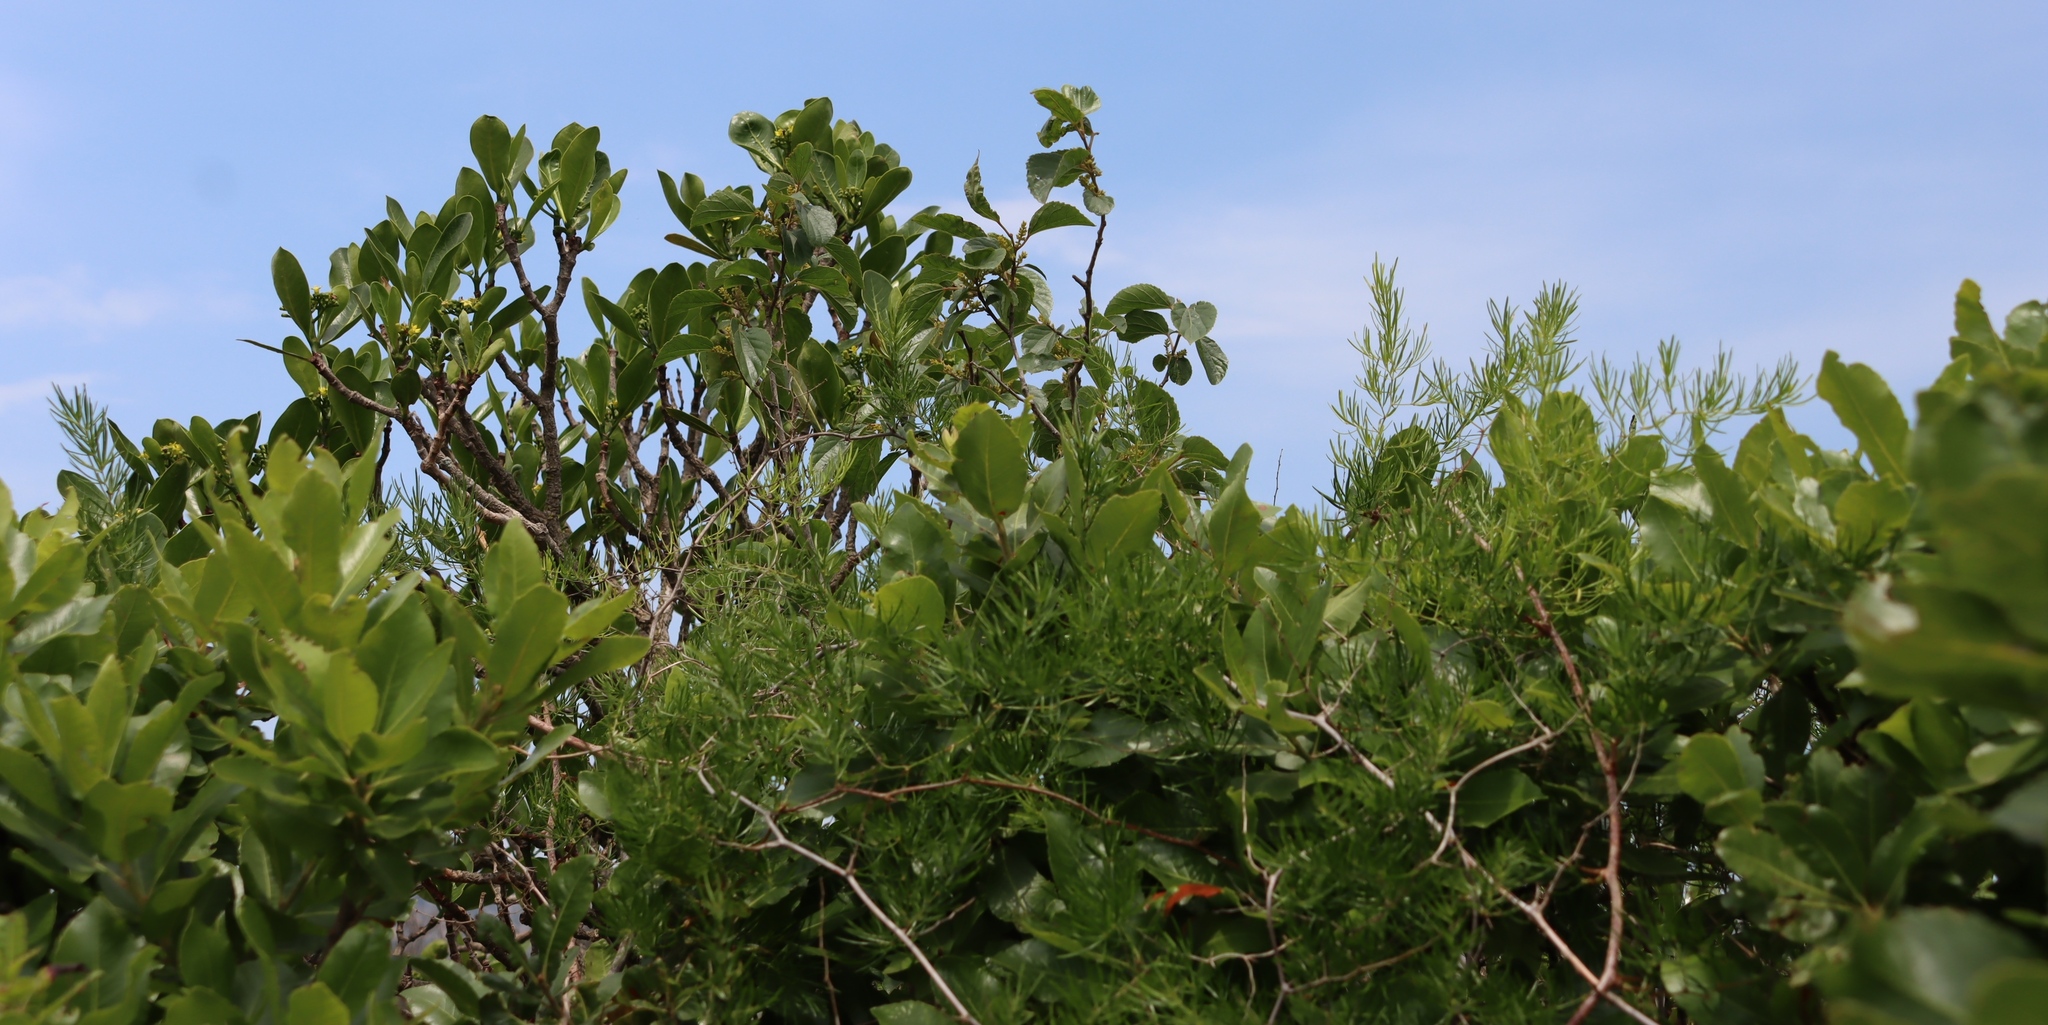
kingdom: Plantae
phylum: Tracheophyta
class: Magnoliopsida
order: Malpighiales
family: Salicaceae
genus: Trimeria
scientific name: Trimeria grandifolia
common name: Wild mulberry
